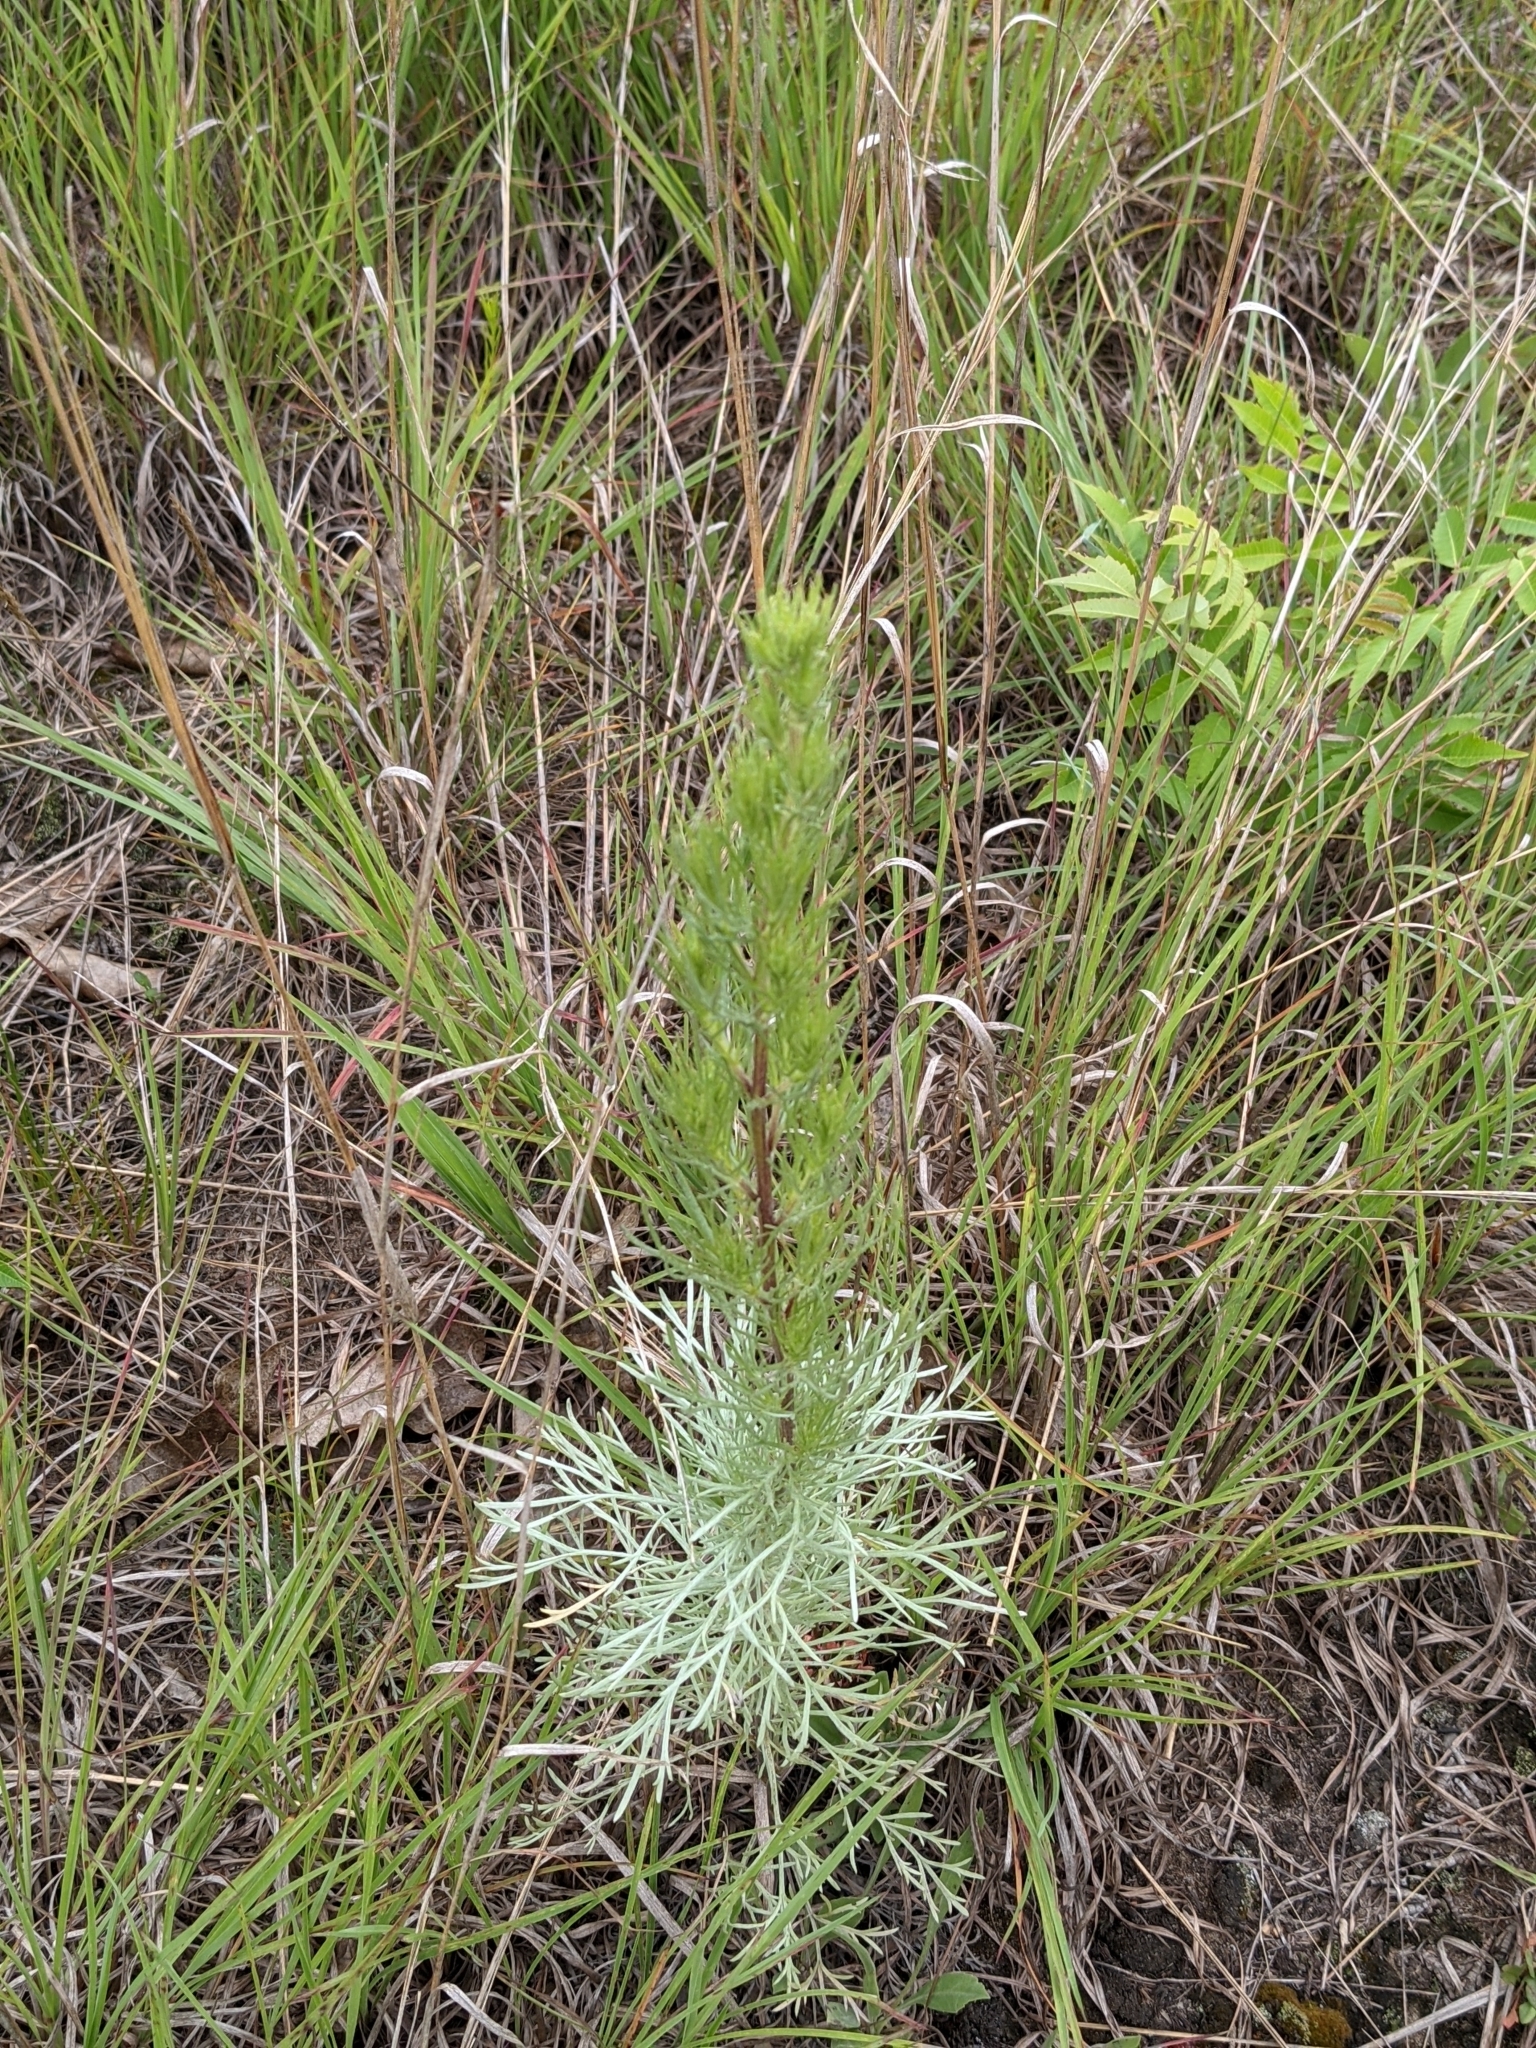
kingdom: Plantae
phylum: Tracheophyta
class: Magnoliopsida
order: Asterales
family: Asteraceae
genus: Artemisia
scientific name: Artemisia campestris
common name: Field wormwood
